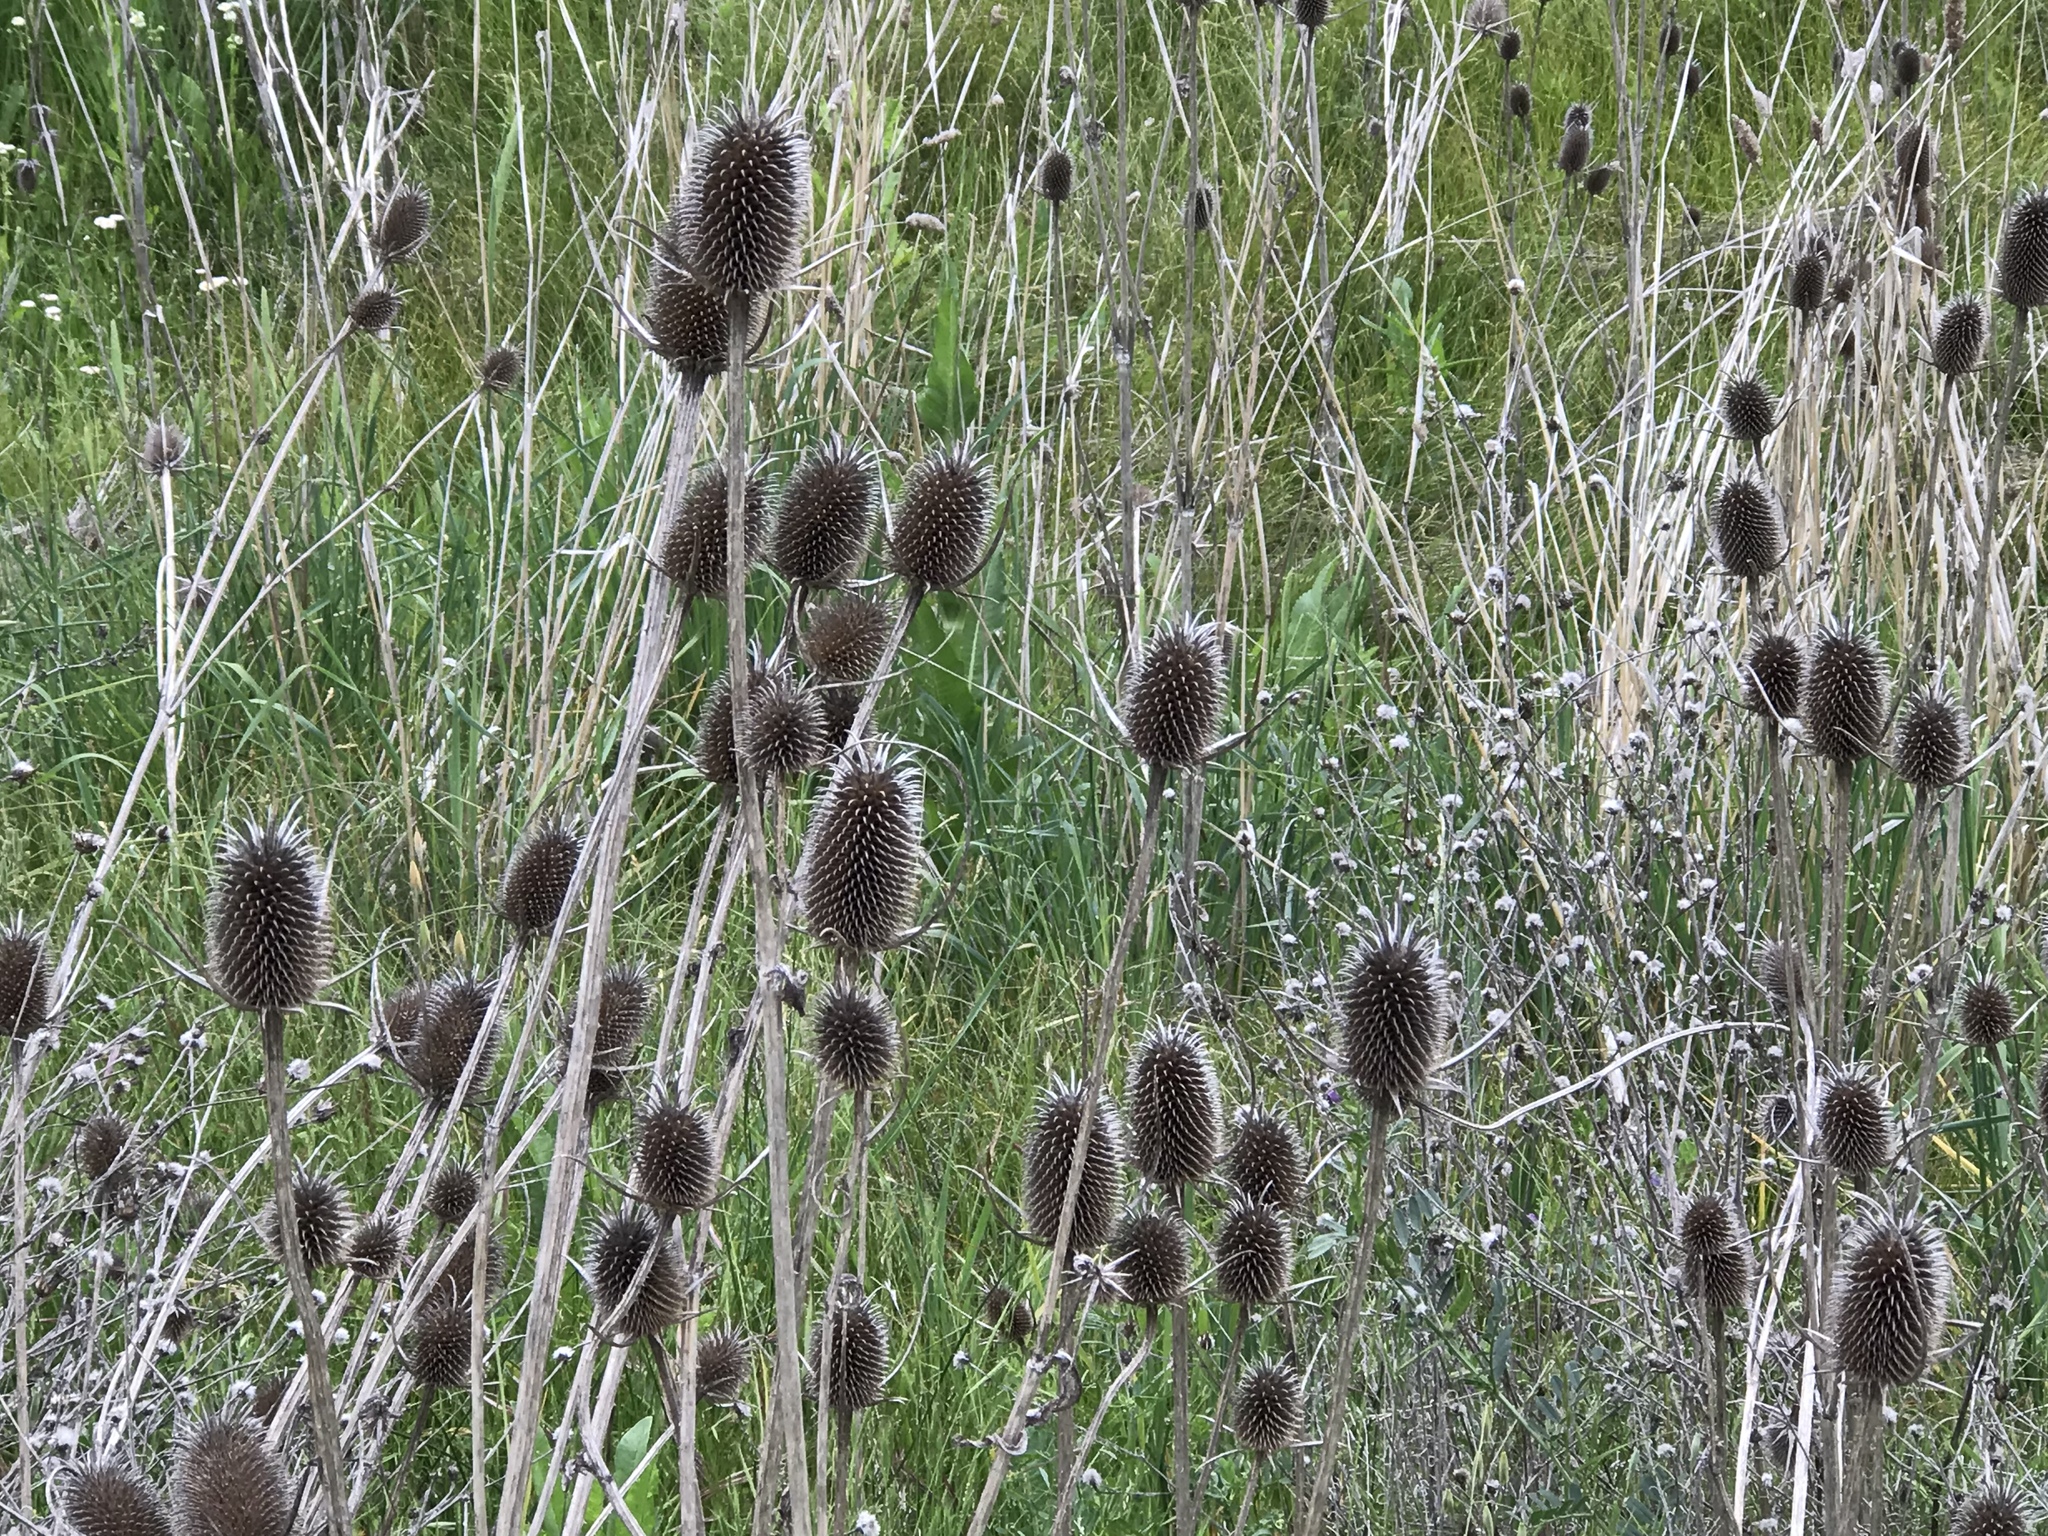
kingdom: Plantae
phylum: Tracheophyta
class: Magnoliopsida
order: Dipsacales
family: Caprifoliaceae
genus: Dipsacus
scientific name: Dipsacus sativus
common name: Fuller's teasel
